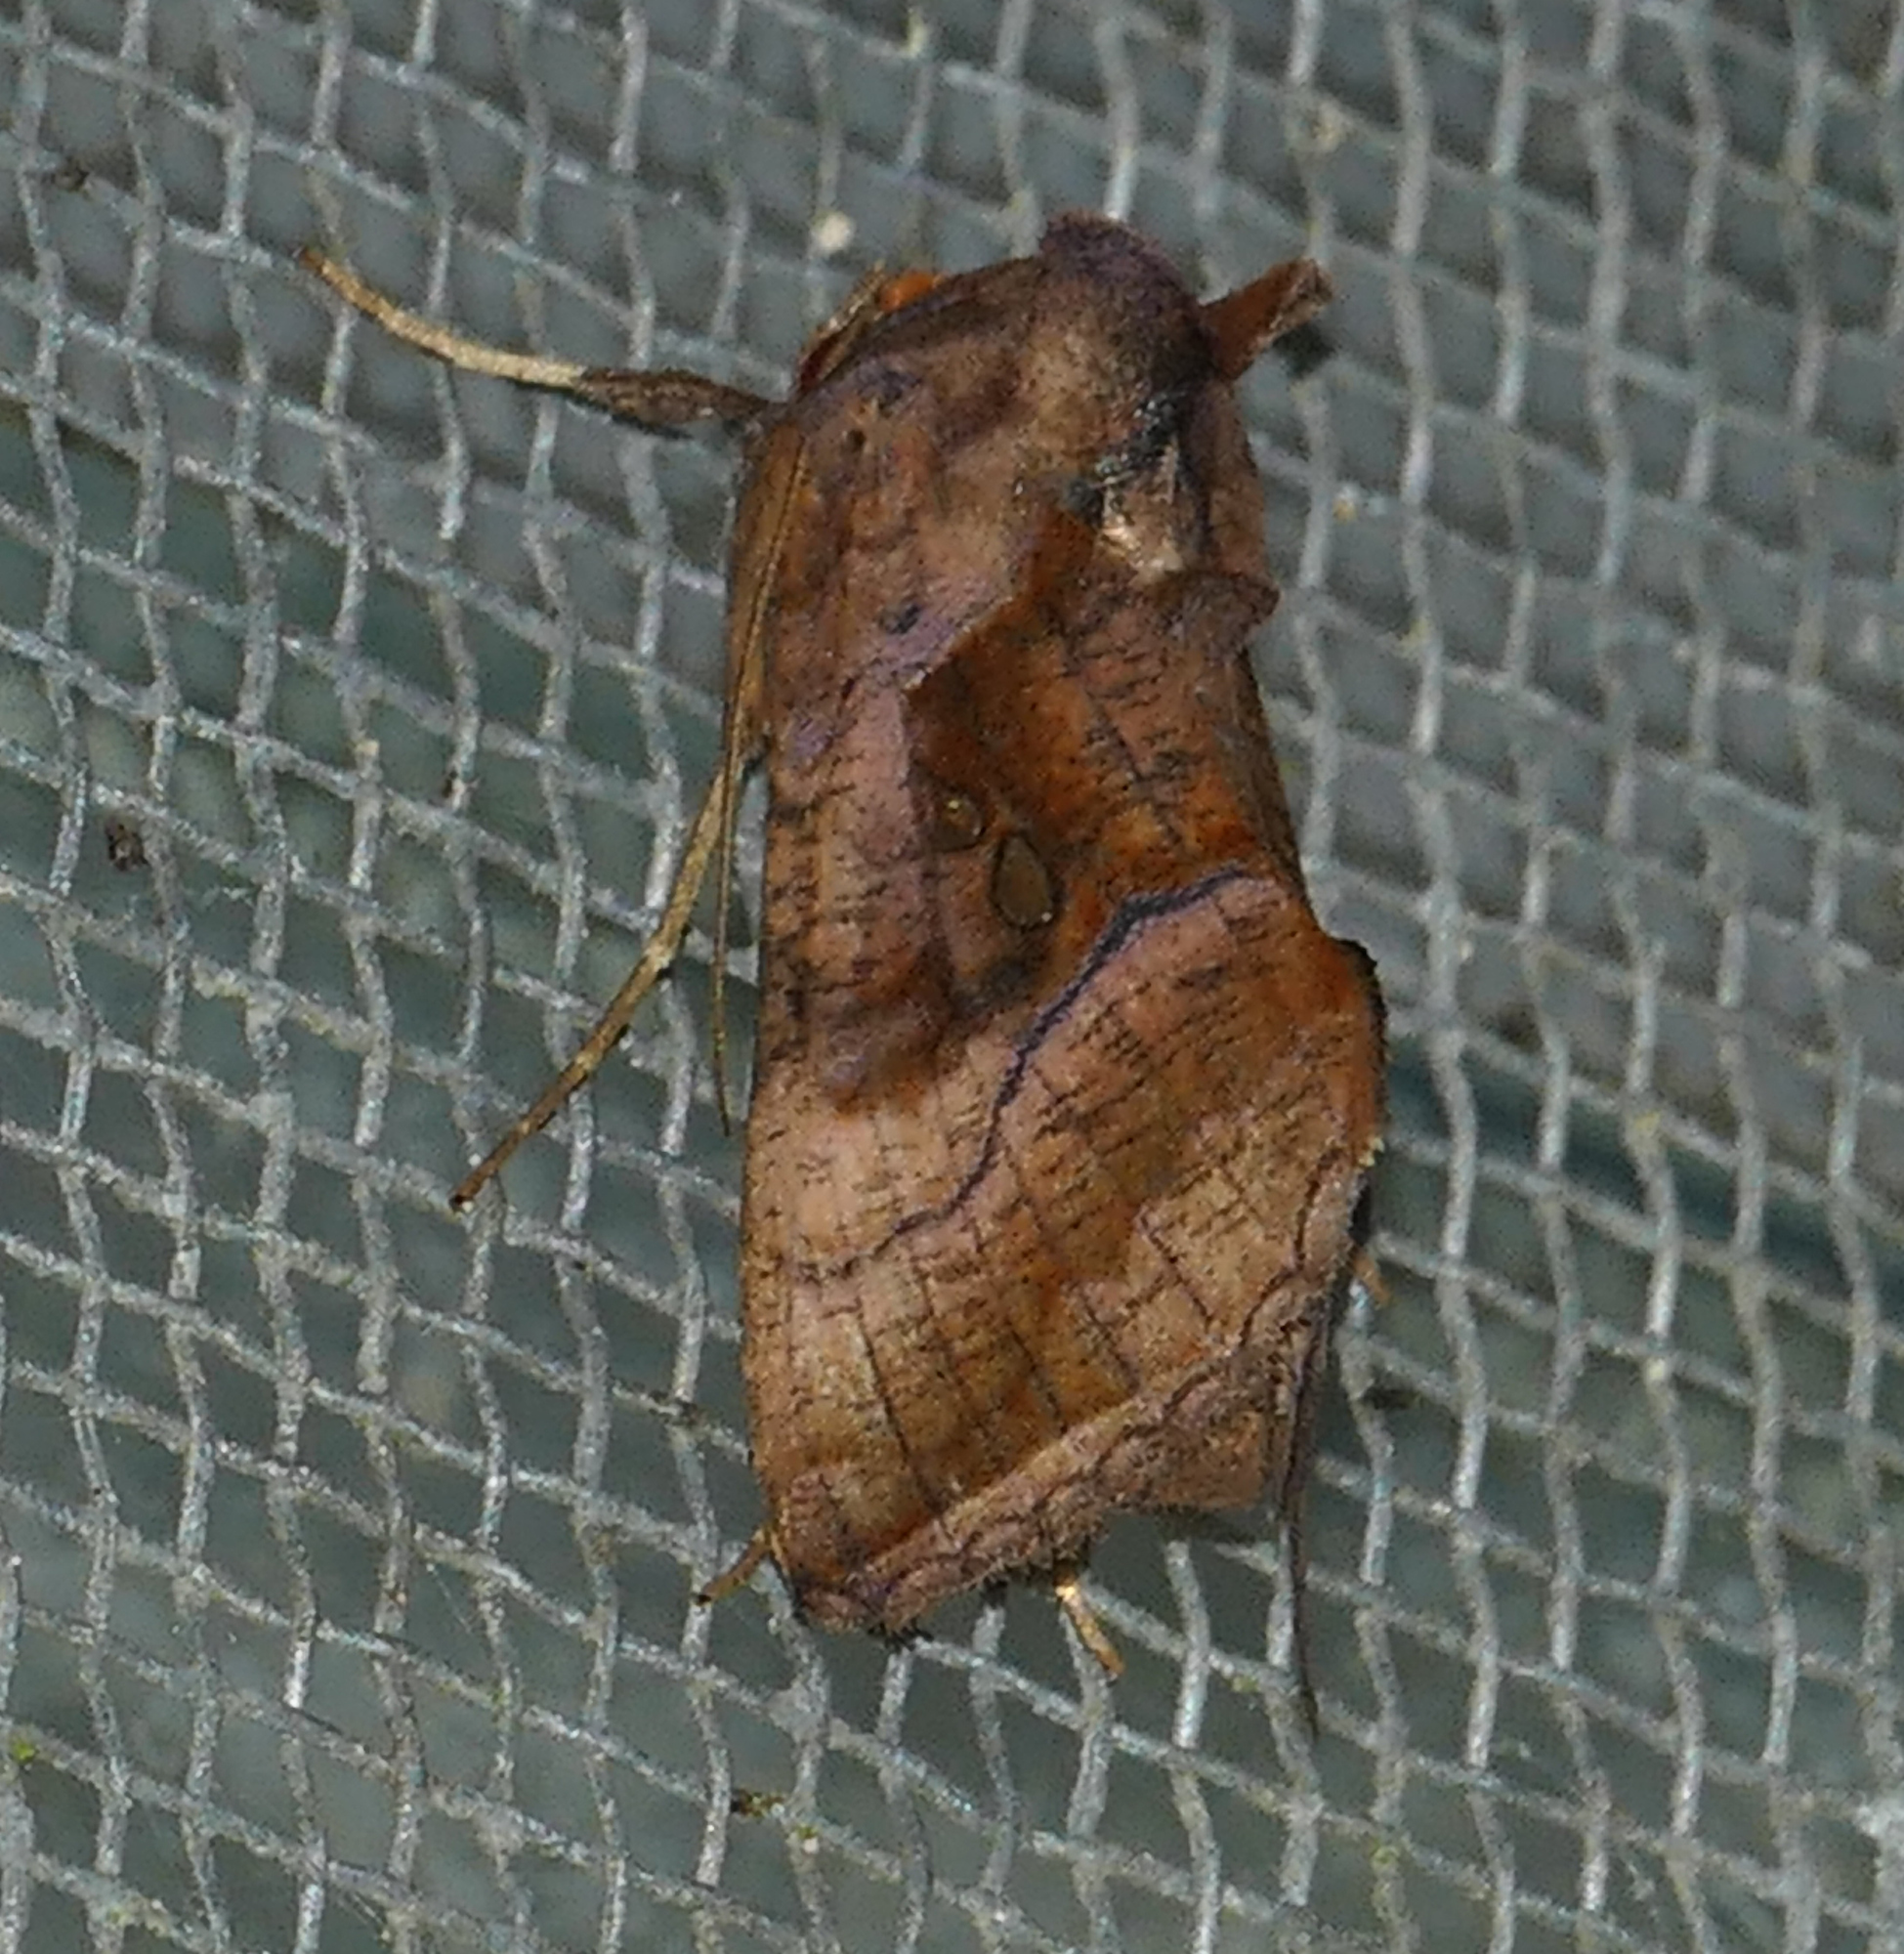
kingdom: Animalia
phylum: Arthropoda
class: Insecta
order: Lepidoptera
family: Noctuidae
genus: Enigmogramma
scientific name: Enigmogramma basigera
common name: Pink-washed looper moth
